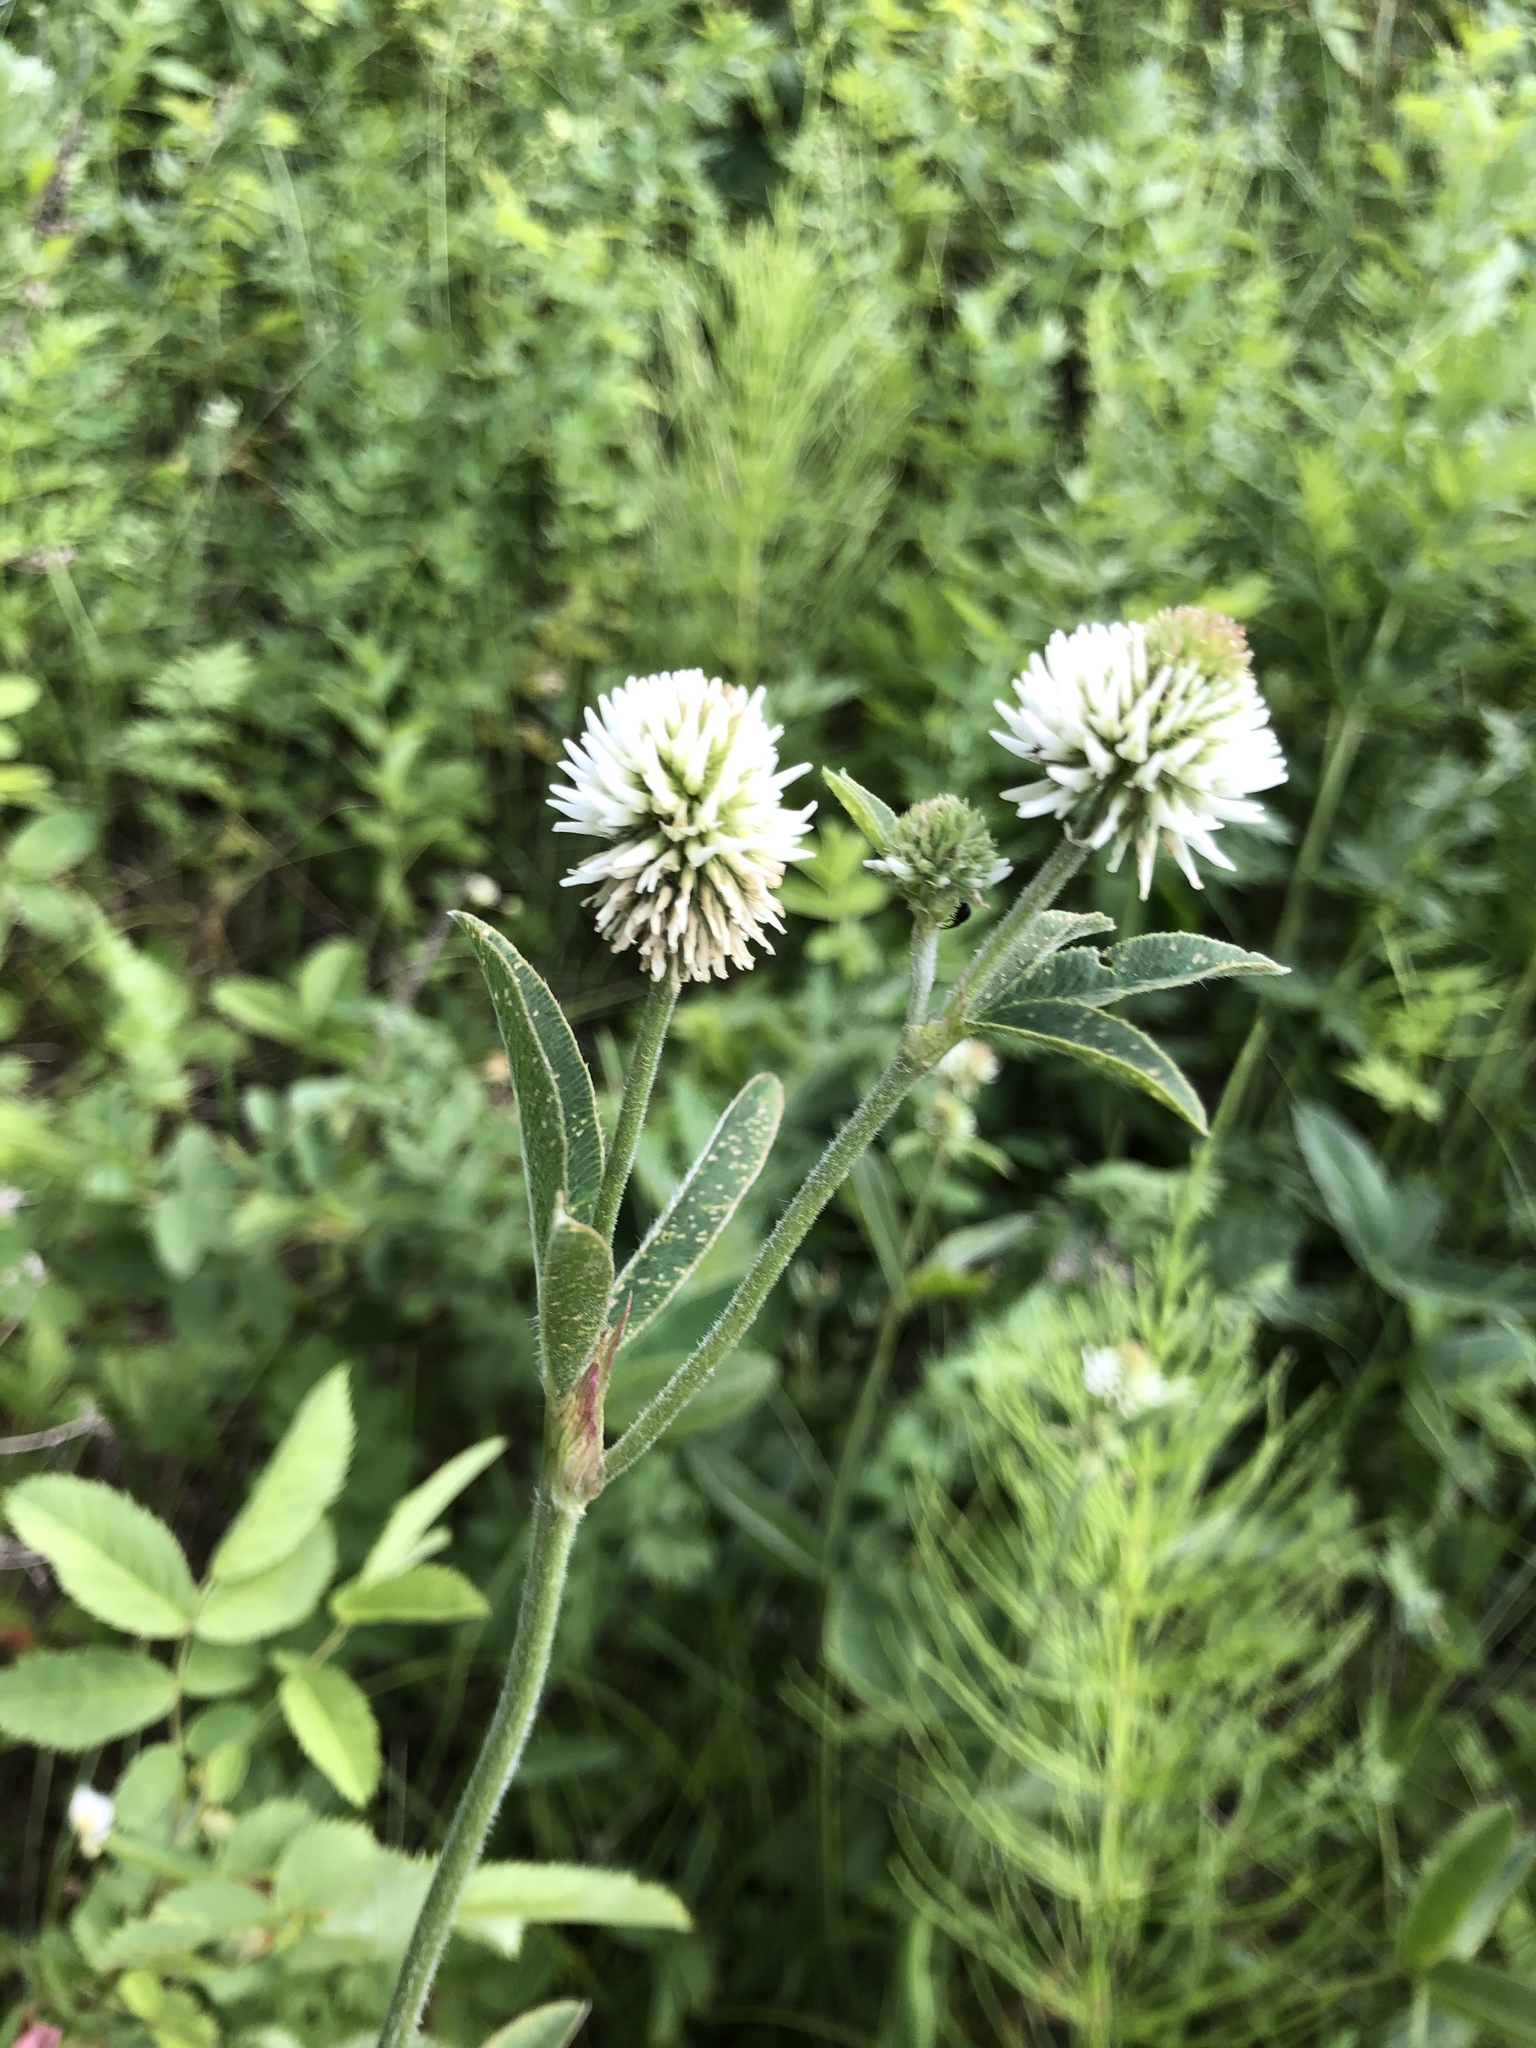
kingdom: Plantae
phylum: Tracheophyta
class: Magnoliopsida
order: Fabales
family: Fabaceae
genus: Trifolium
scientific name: Trifolium montanum
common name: Mountain clover
